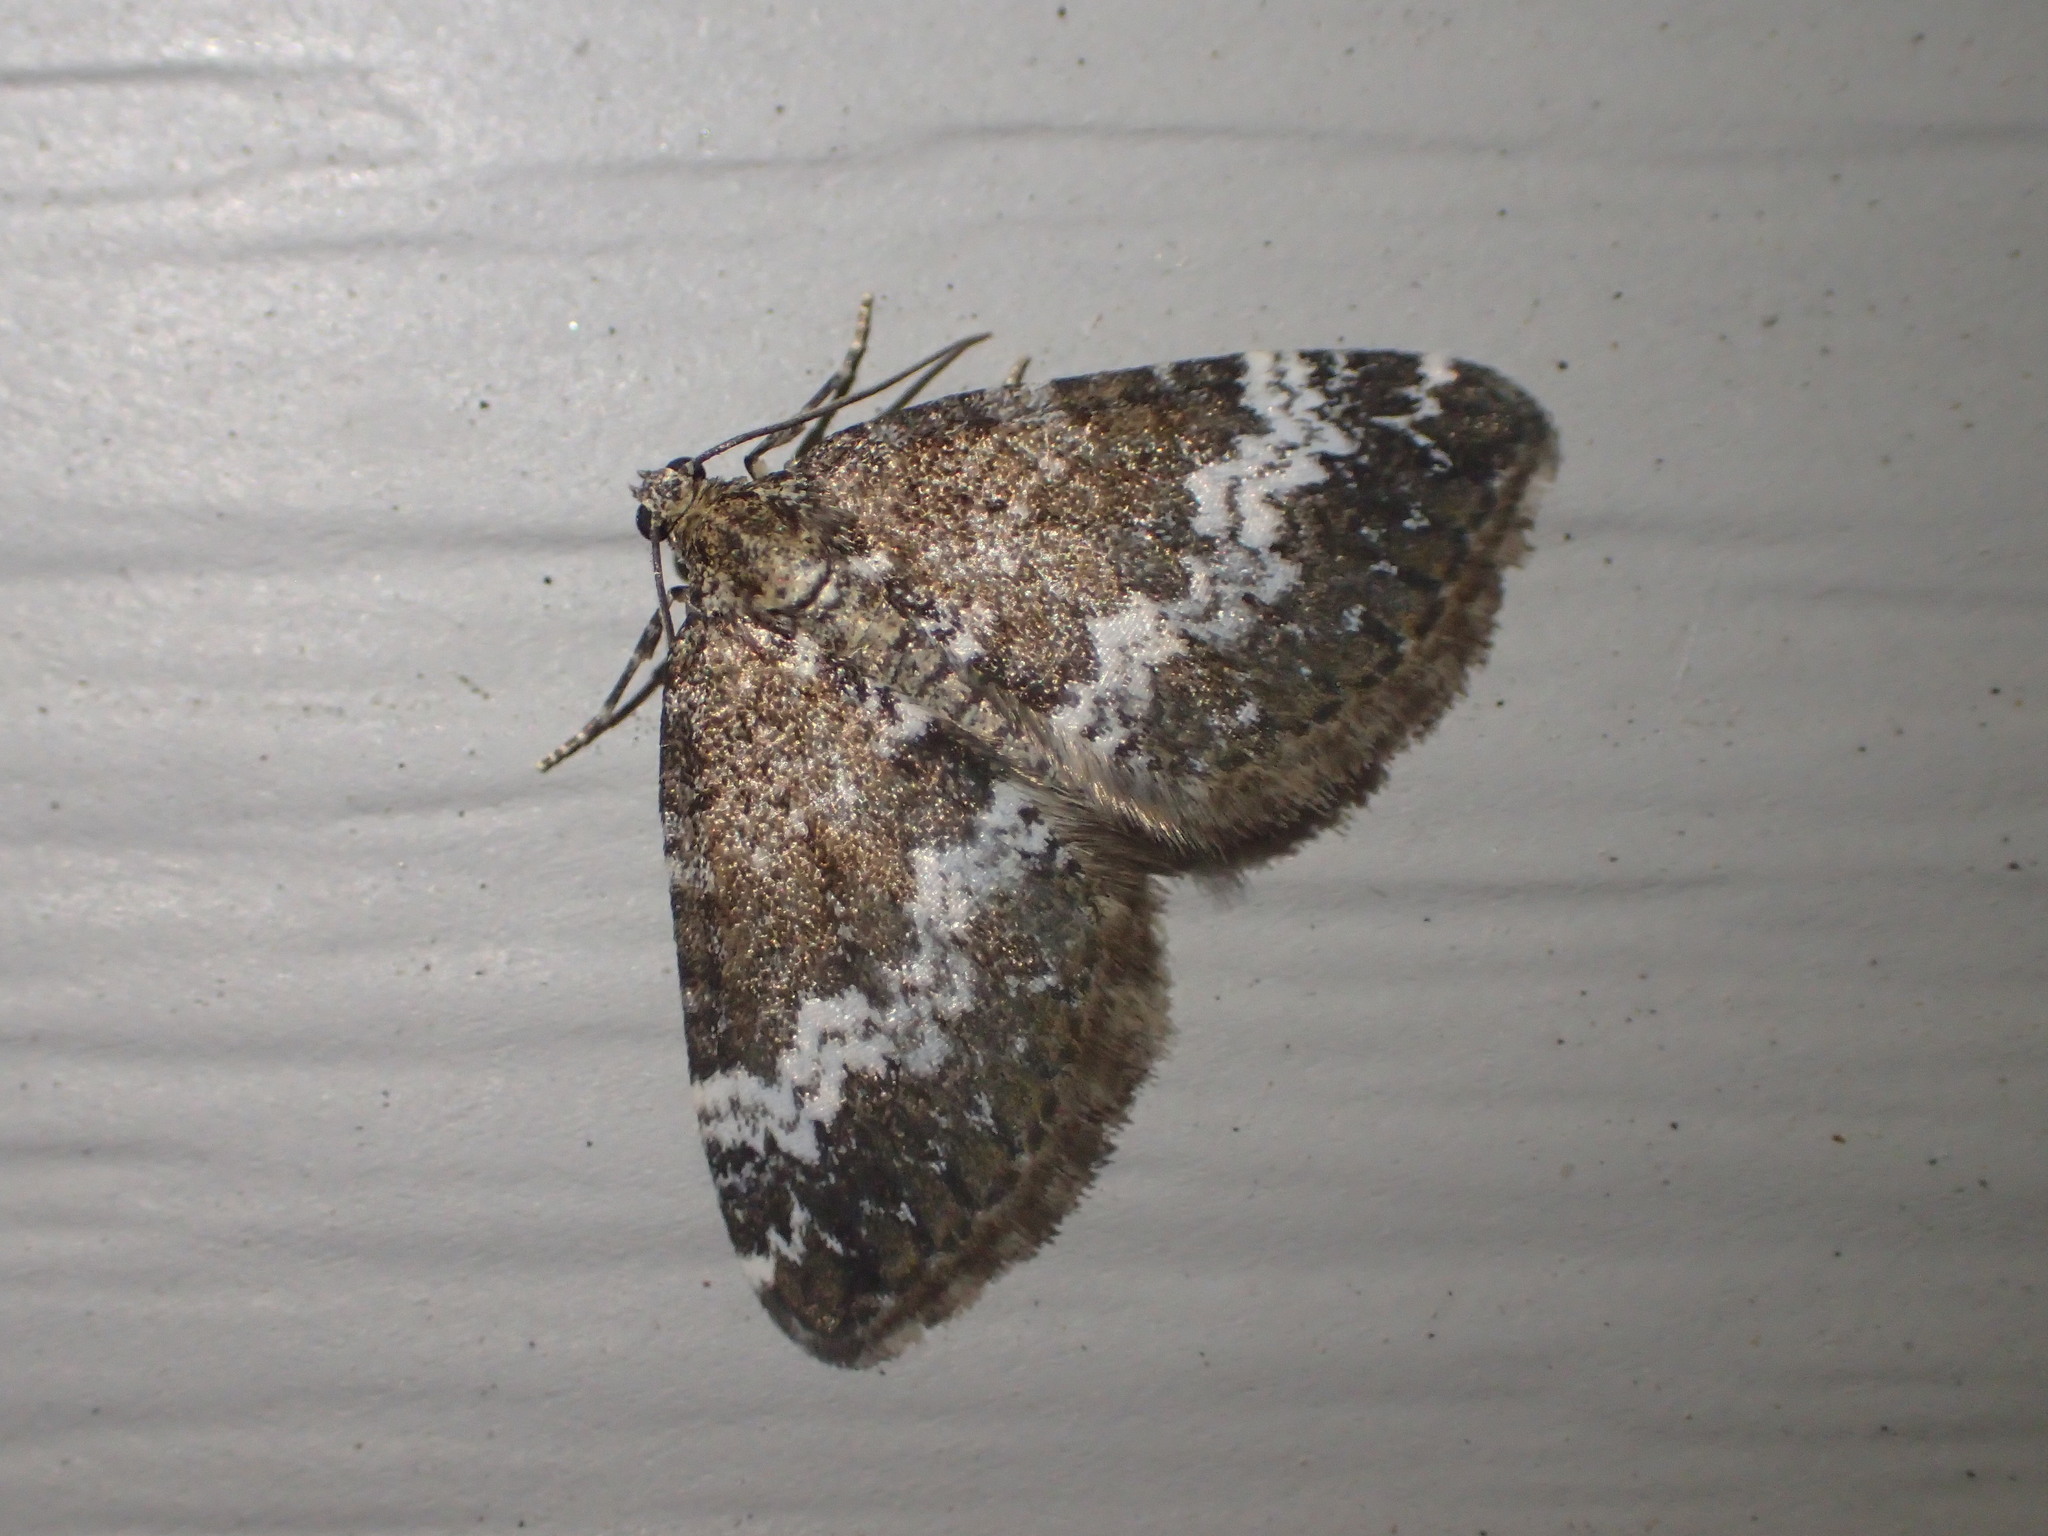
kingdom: Animalia
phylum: Arthropoda
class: Insecta
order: Lepidoptera
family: Geometridae
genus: Perizoma
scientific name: Perizoma alchemillata
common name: Small rivulet
